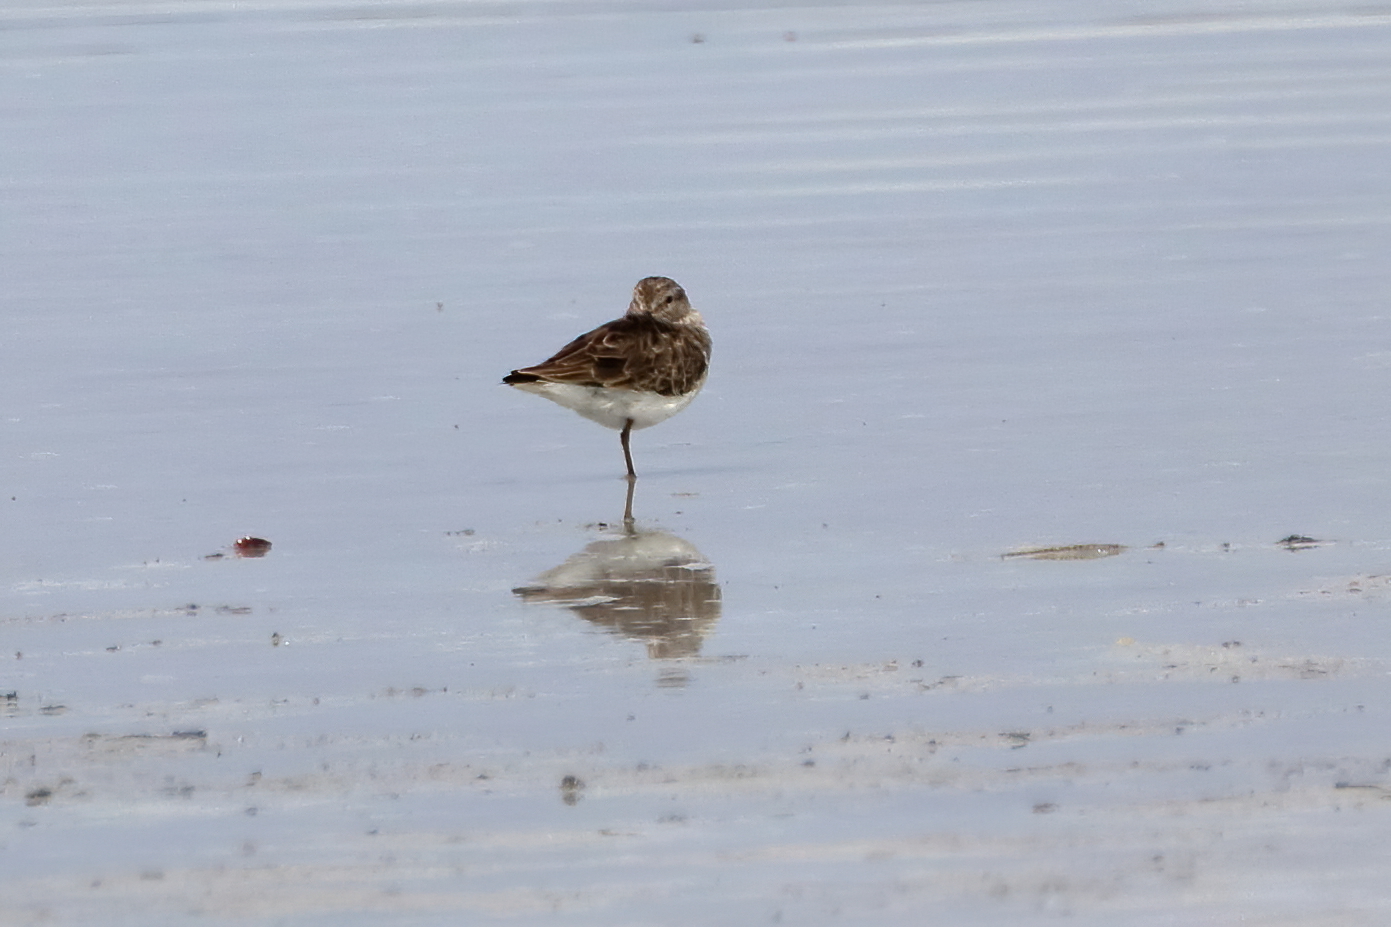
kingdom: Animalia
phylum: Chordata
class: Aves
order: Charadriiformes
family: Scolopacidae
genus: Calidris
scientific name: Calidris minutilla
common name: Least sandpiper
